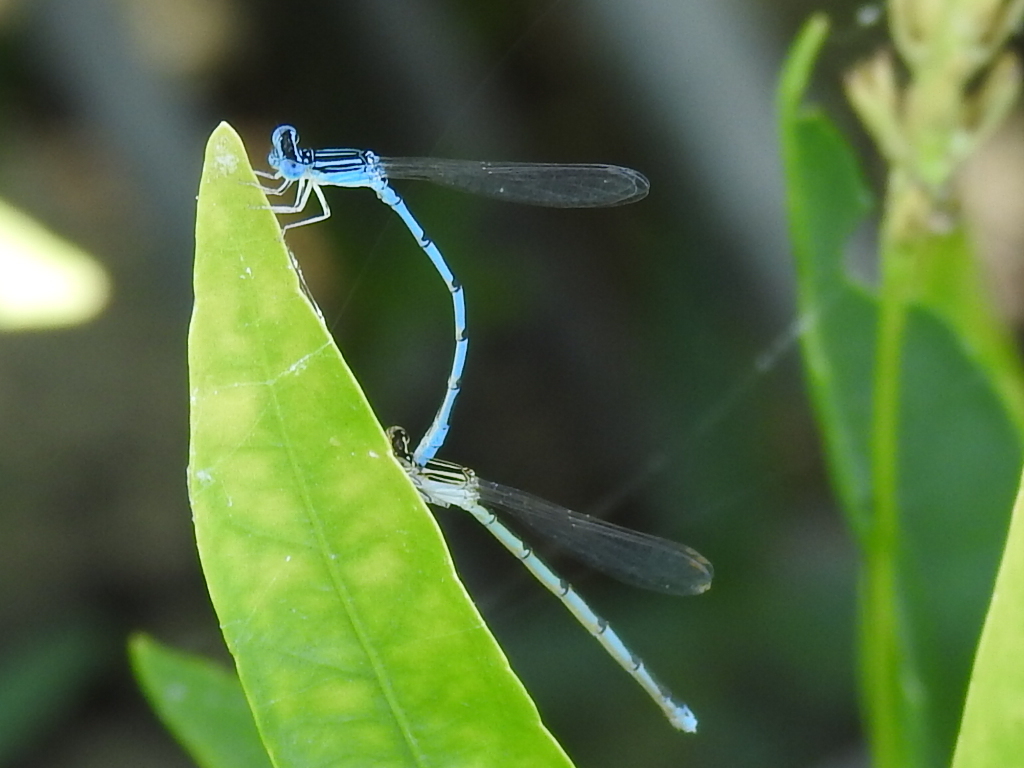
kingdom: Animalia
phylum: Arthropoda
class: Insecta
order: Odonata
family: Coenagrionidae
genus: Enallagma
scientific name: Enallagma basidens
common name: Double-striped bluet
